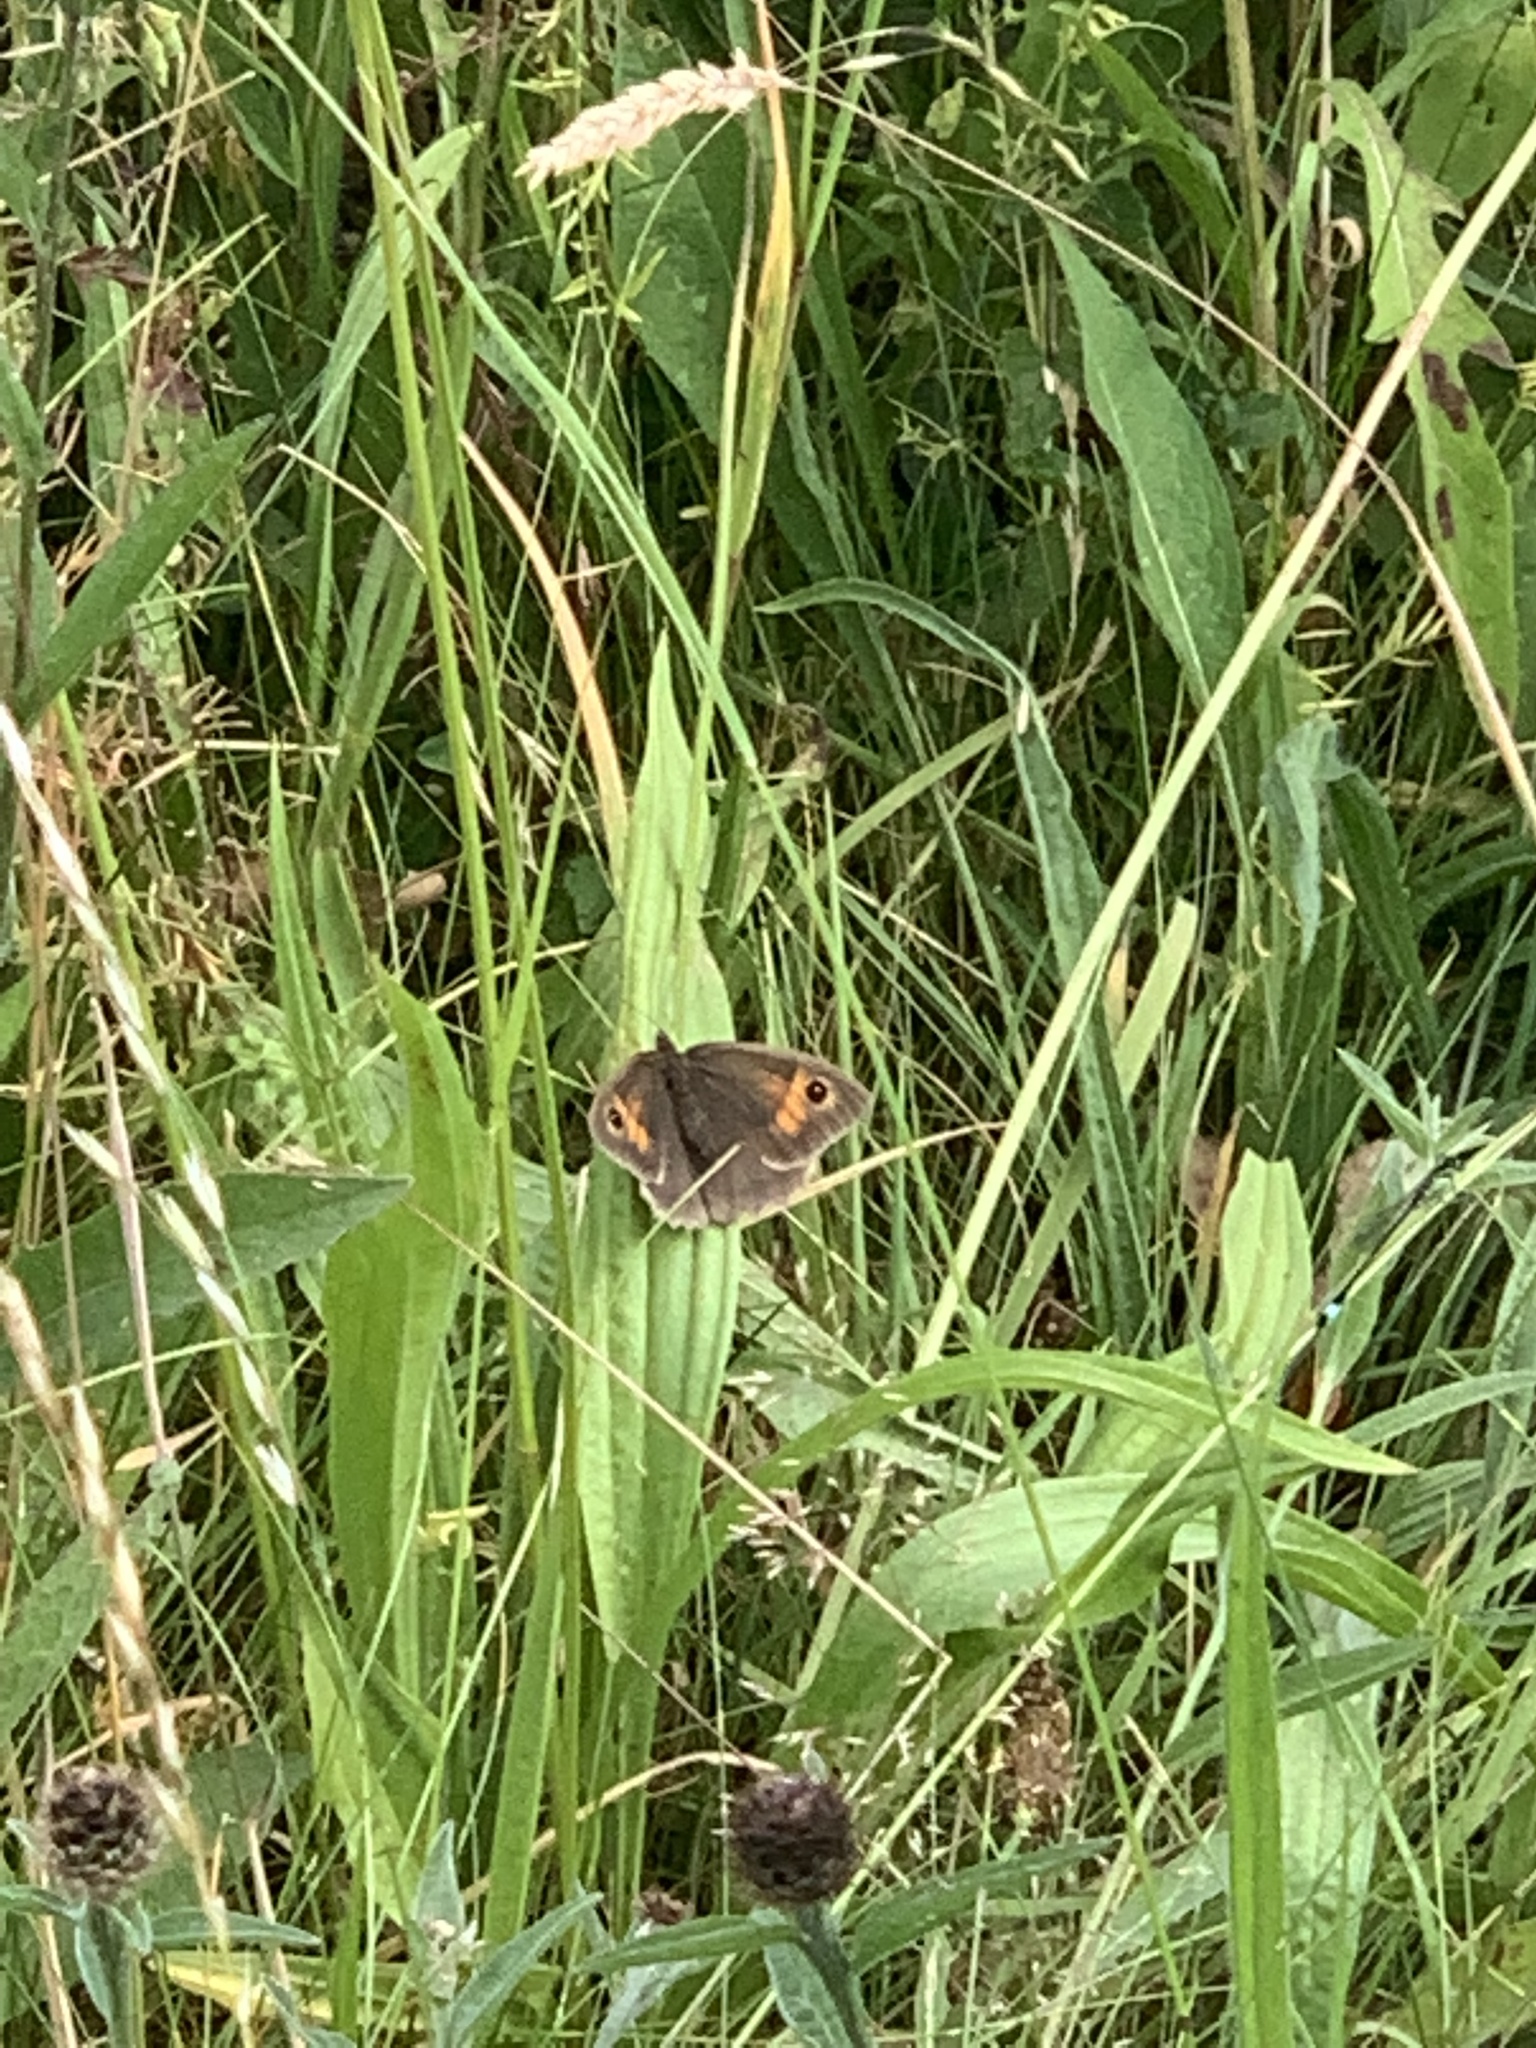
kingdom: Animalia
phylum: Arthropoda
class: Insecta
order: Lepidoptera
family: Nymphalidae
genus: Maniola
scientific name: Maniola jurtina
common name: Meadow brown
